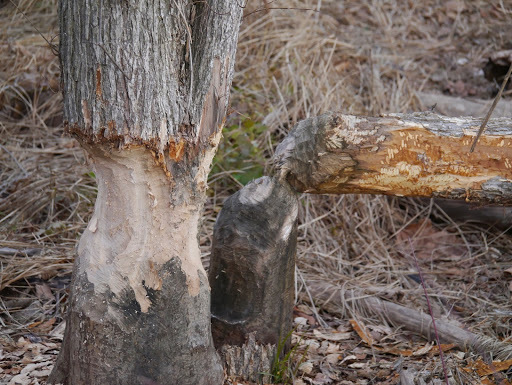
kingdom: Animalia
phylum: Chordata
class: Mammalia
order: Rodentia
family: Castoridae
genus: Castor
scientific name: Castor canadensis
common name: American beaver
